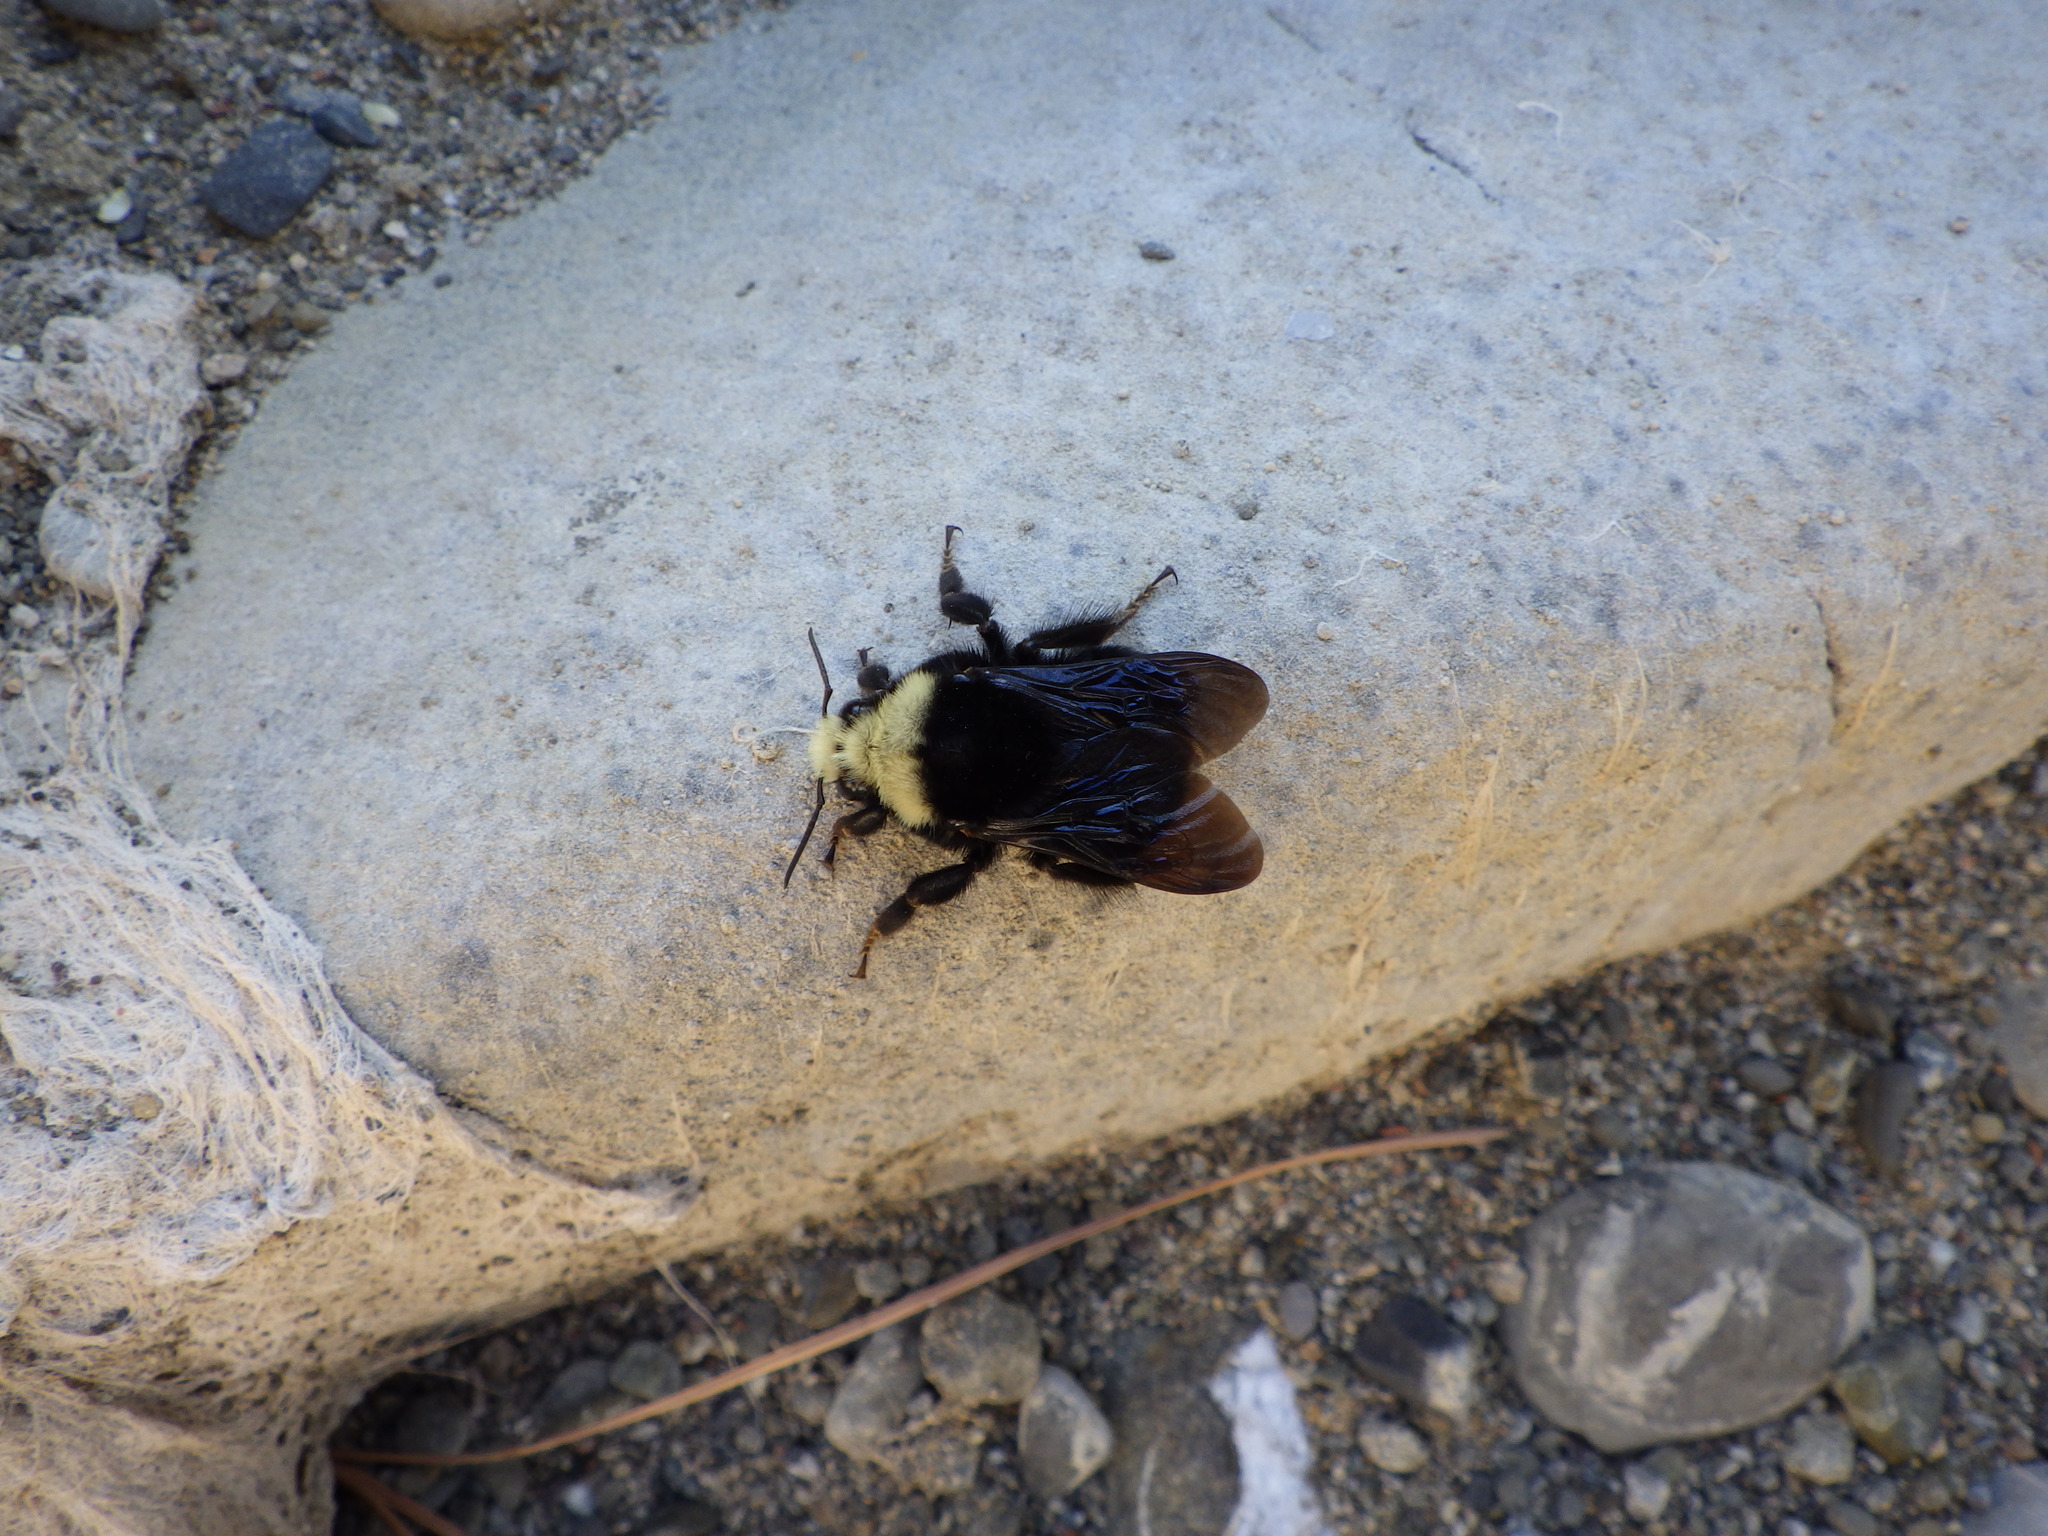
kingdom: Animalia
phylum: Arthropoda
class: Insecta
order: Hymenoptera
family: Apidae
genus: Bombus
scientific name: Bombus vosnesenskii
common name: Vosnesensky bumble bee
